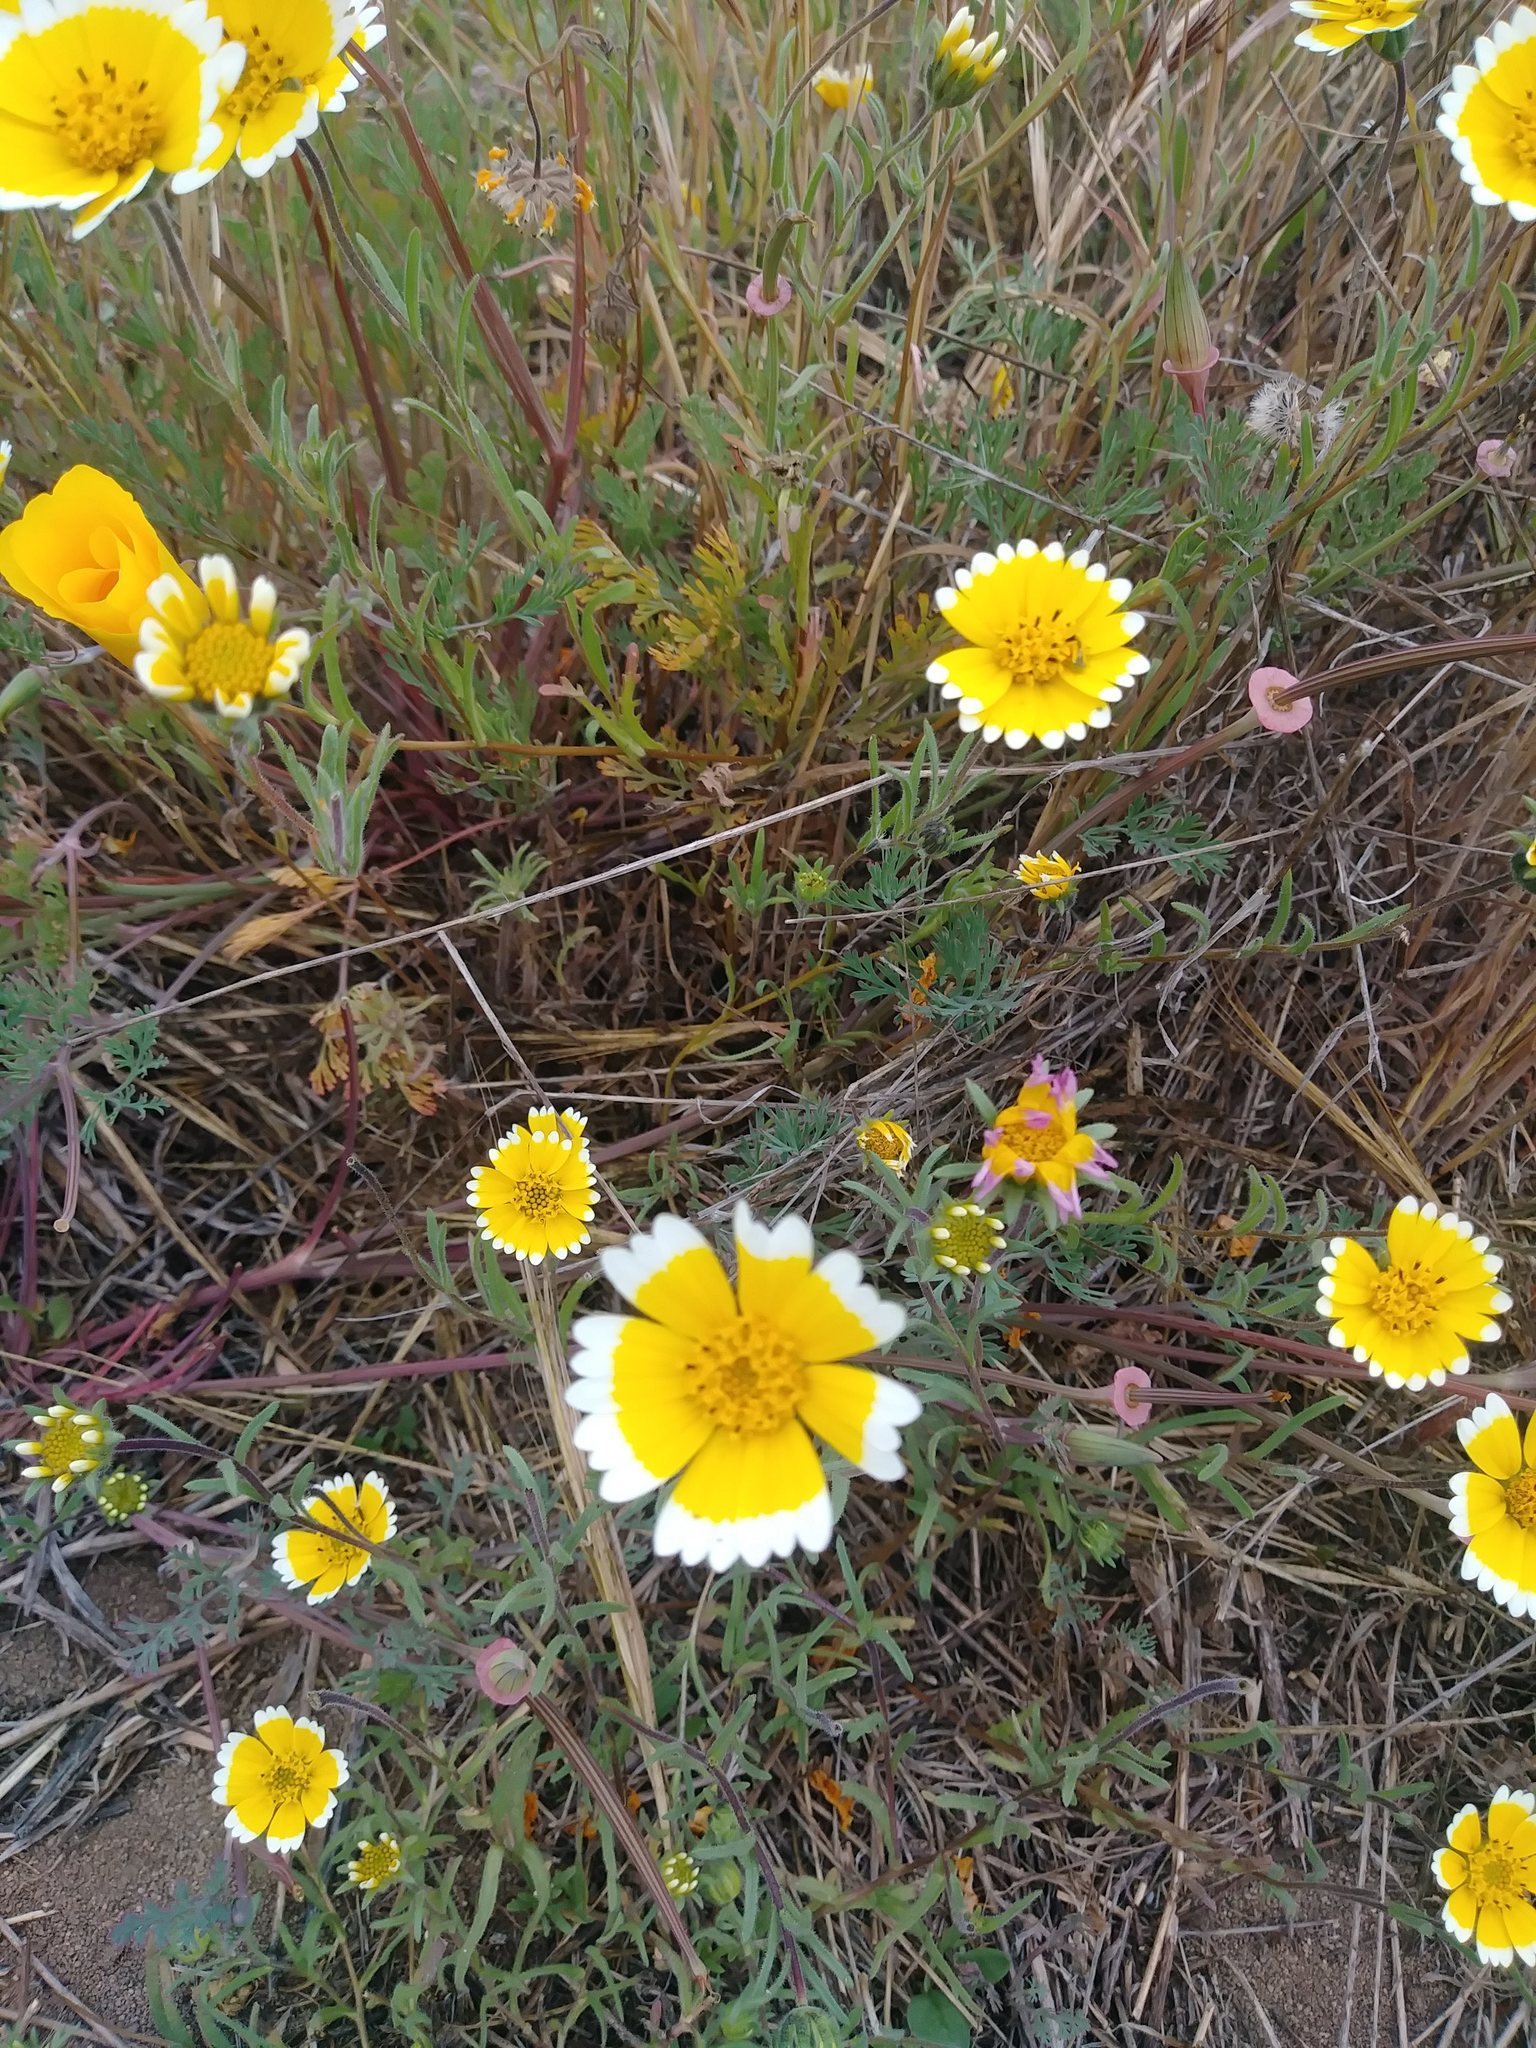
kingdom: Plantae
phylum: Tracheophyta
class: Magnoliopsida
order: Asterales
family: Asteraceae
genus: Layia
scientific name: Layia platyglossa
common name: Tidy-tips
